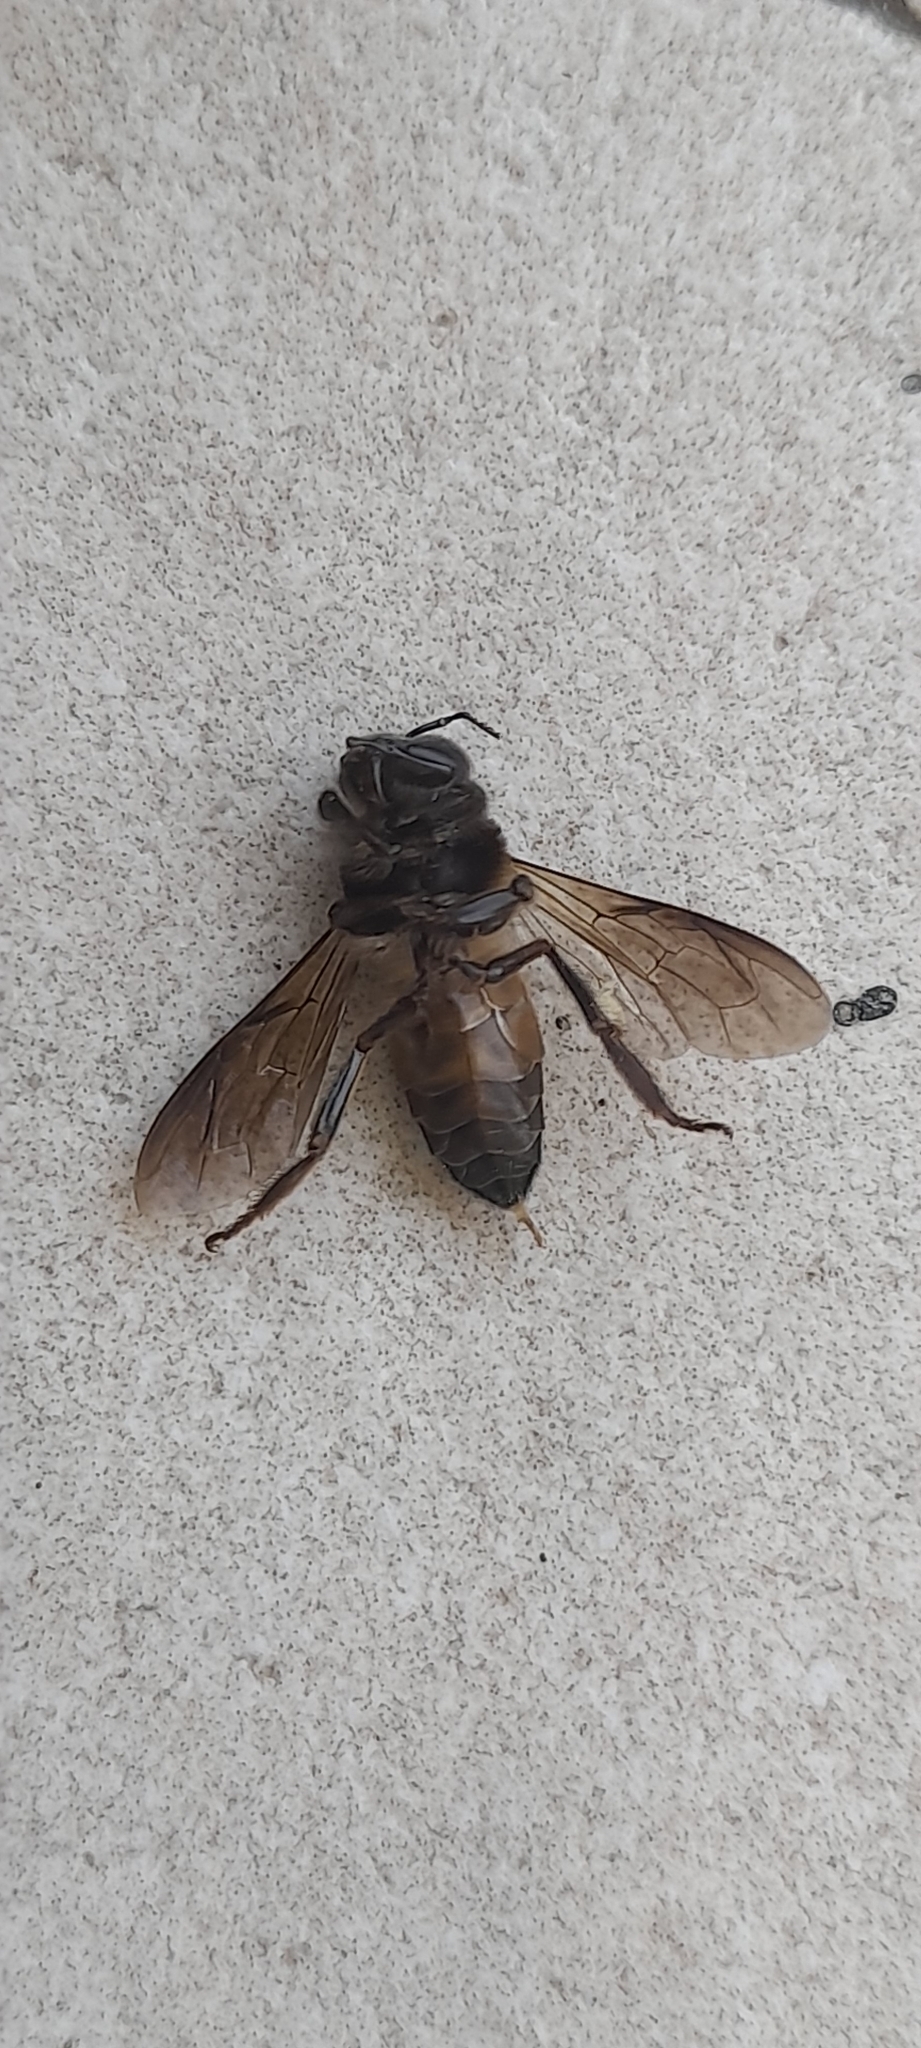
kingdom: Animalia
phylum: Arthropoda
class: Insecta
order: Hymenoptera
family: Apidae
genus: Apis
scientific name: Apis dorsata
